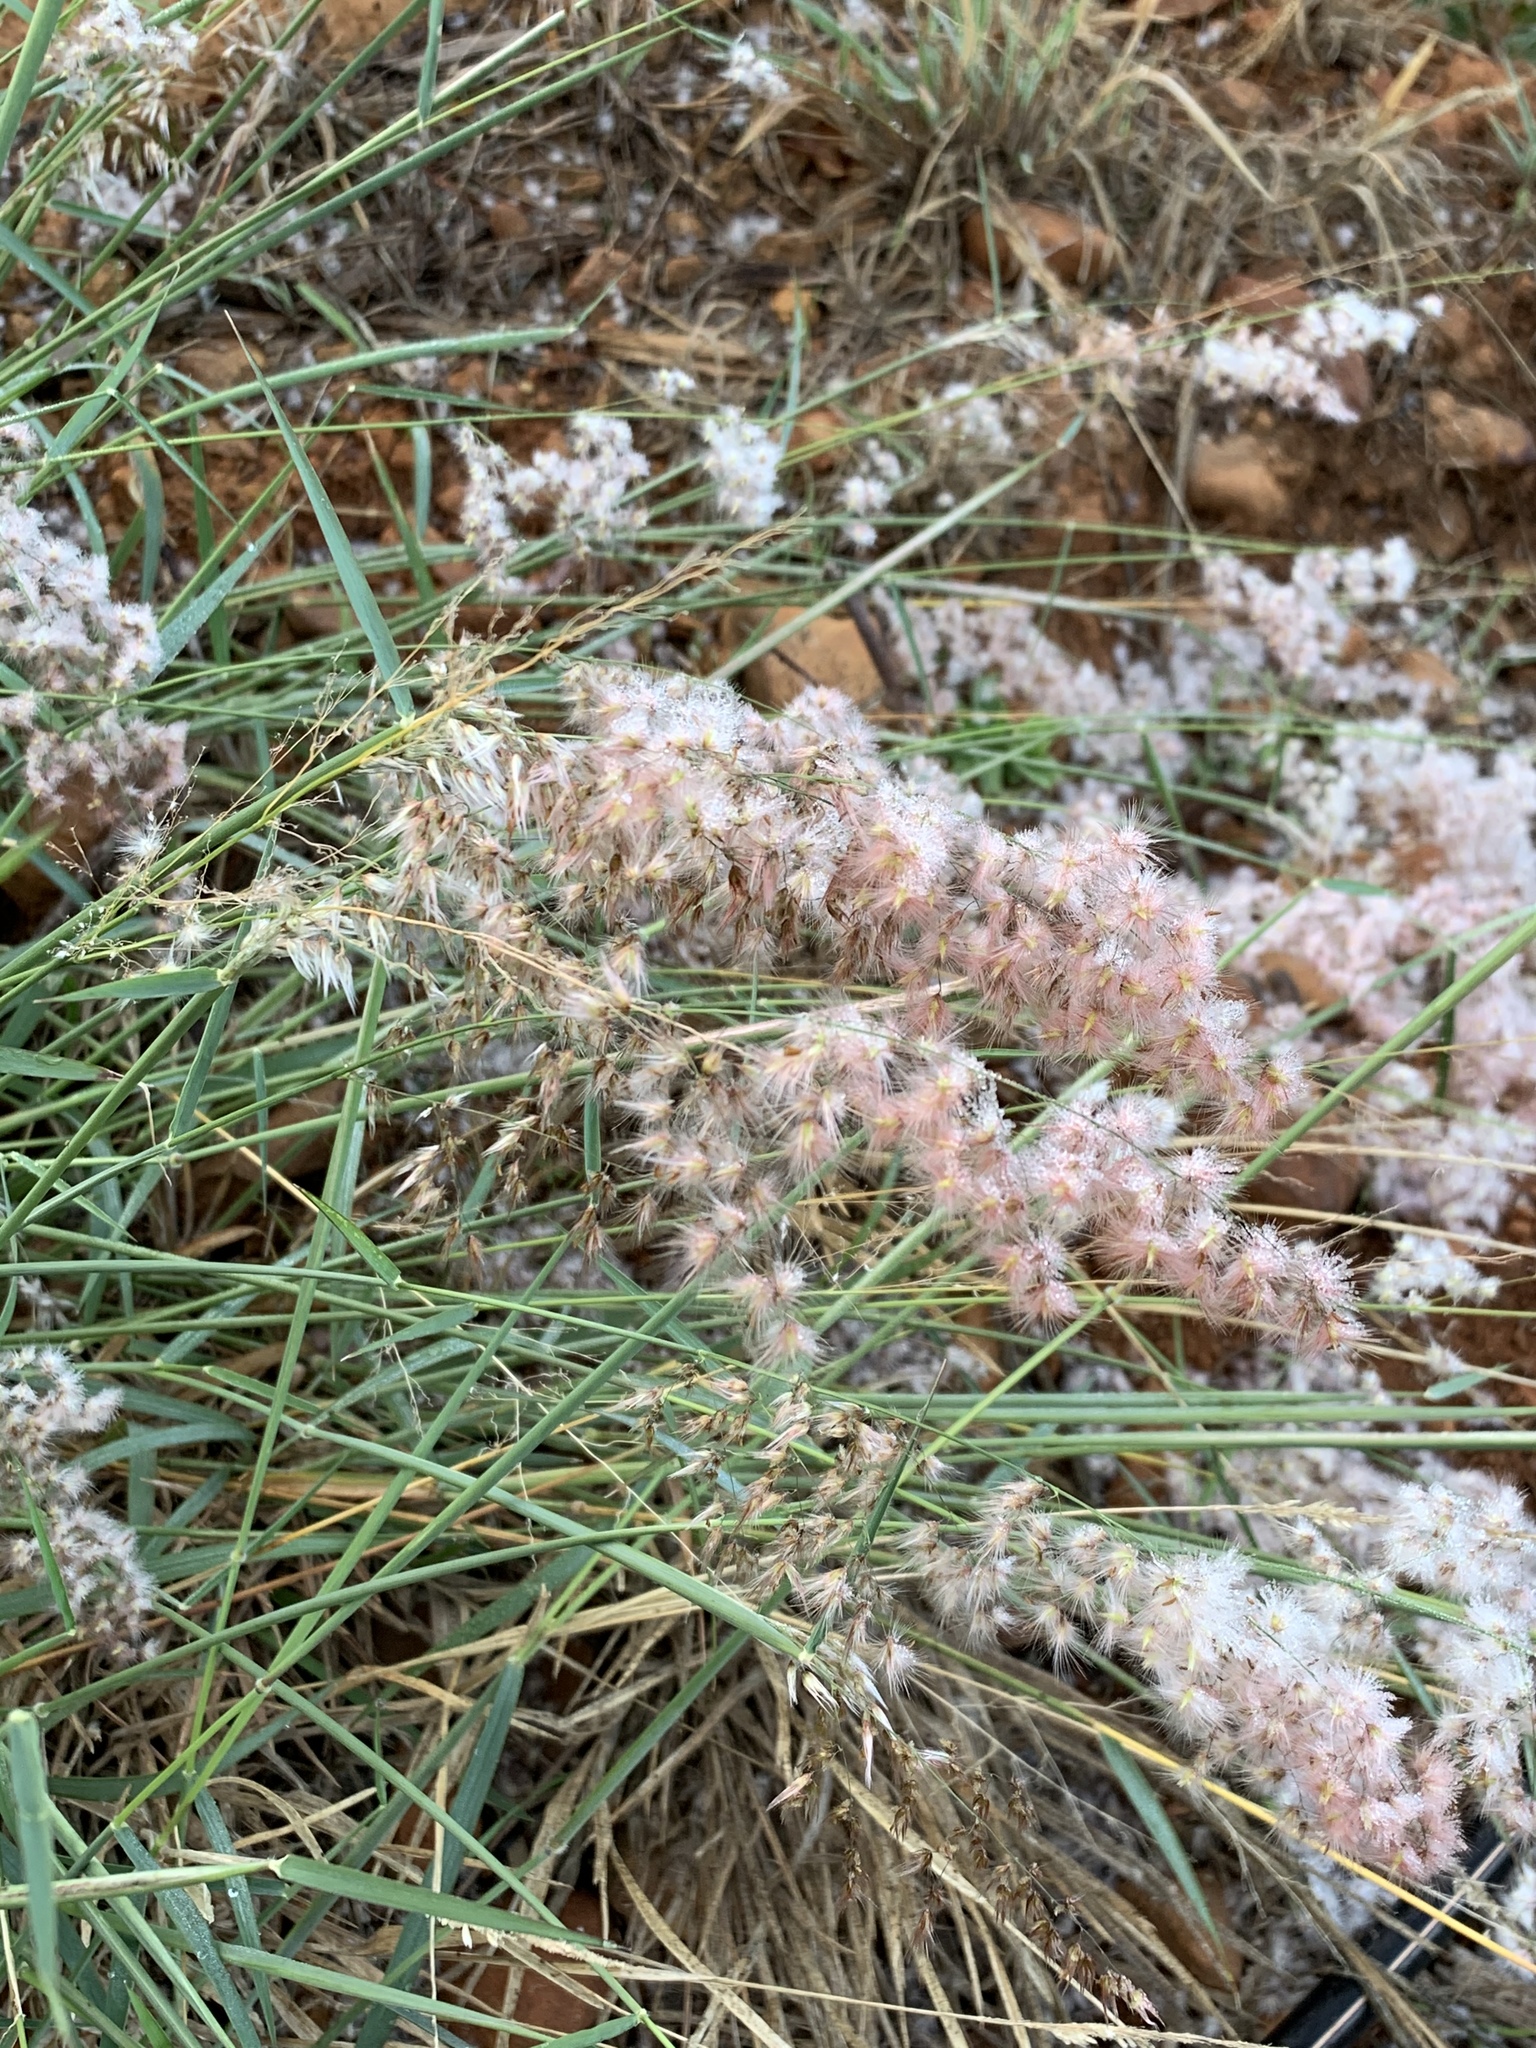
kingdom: Plantae
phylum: Tracheophyta
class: Liliopsida
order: Poales
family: Poaceae
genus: Melinis
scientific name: Melinis repens
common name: Rose natal grass
